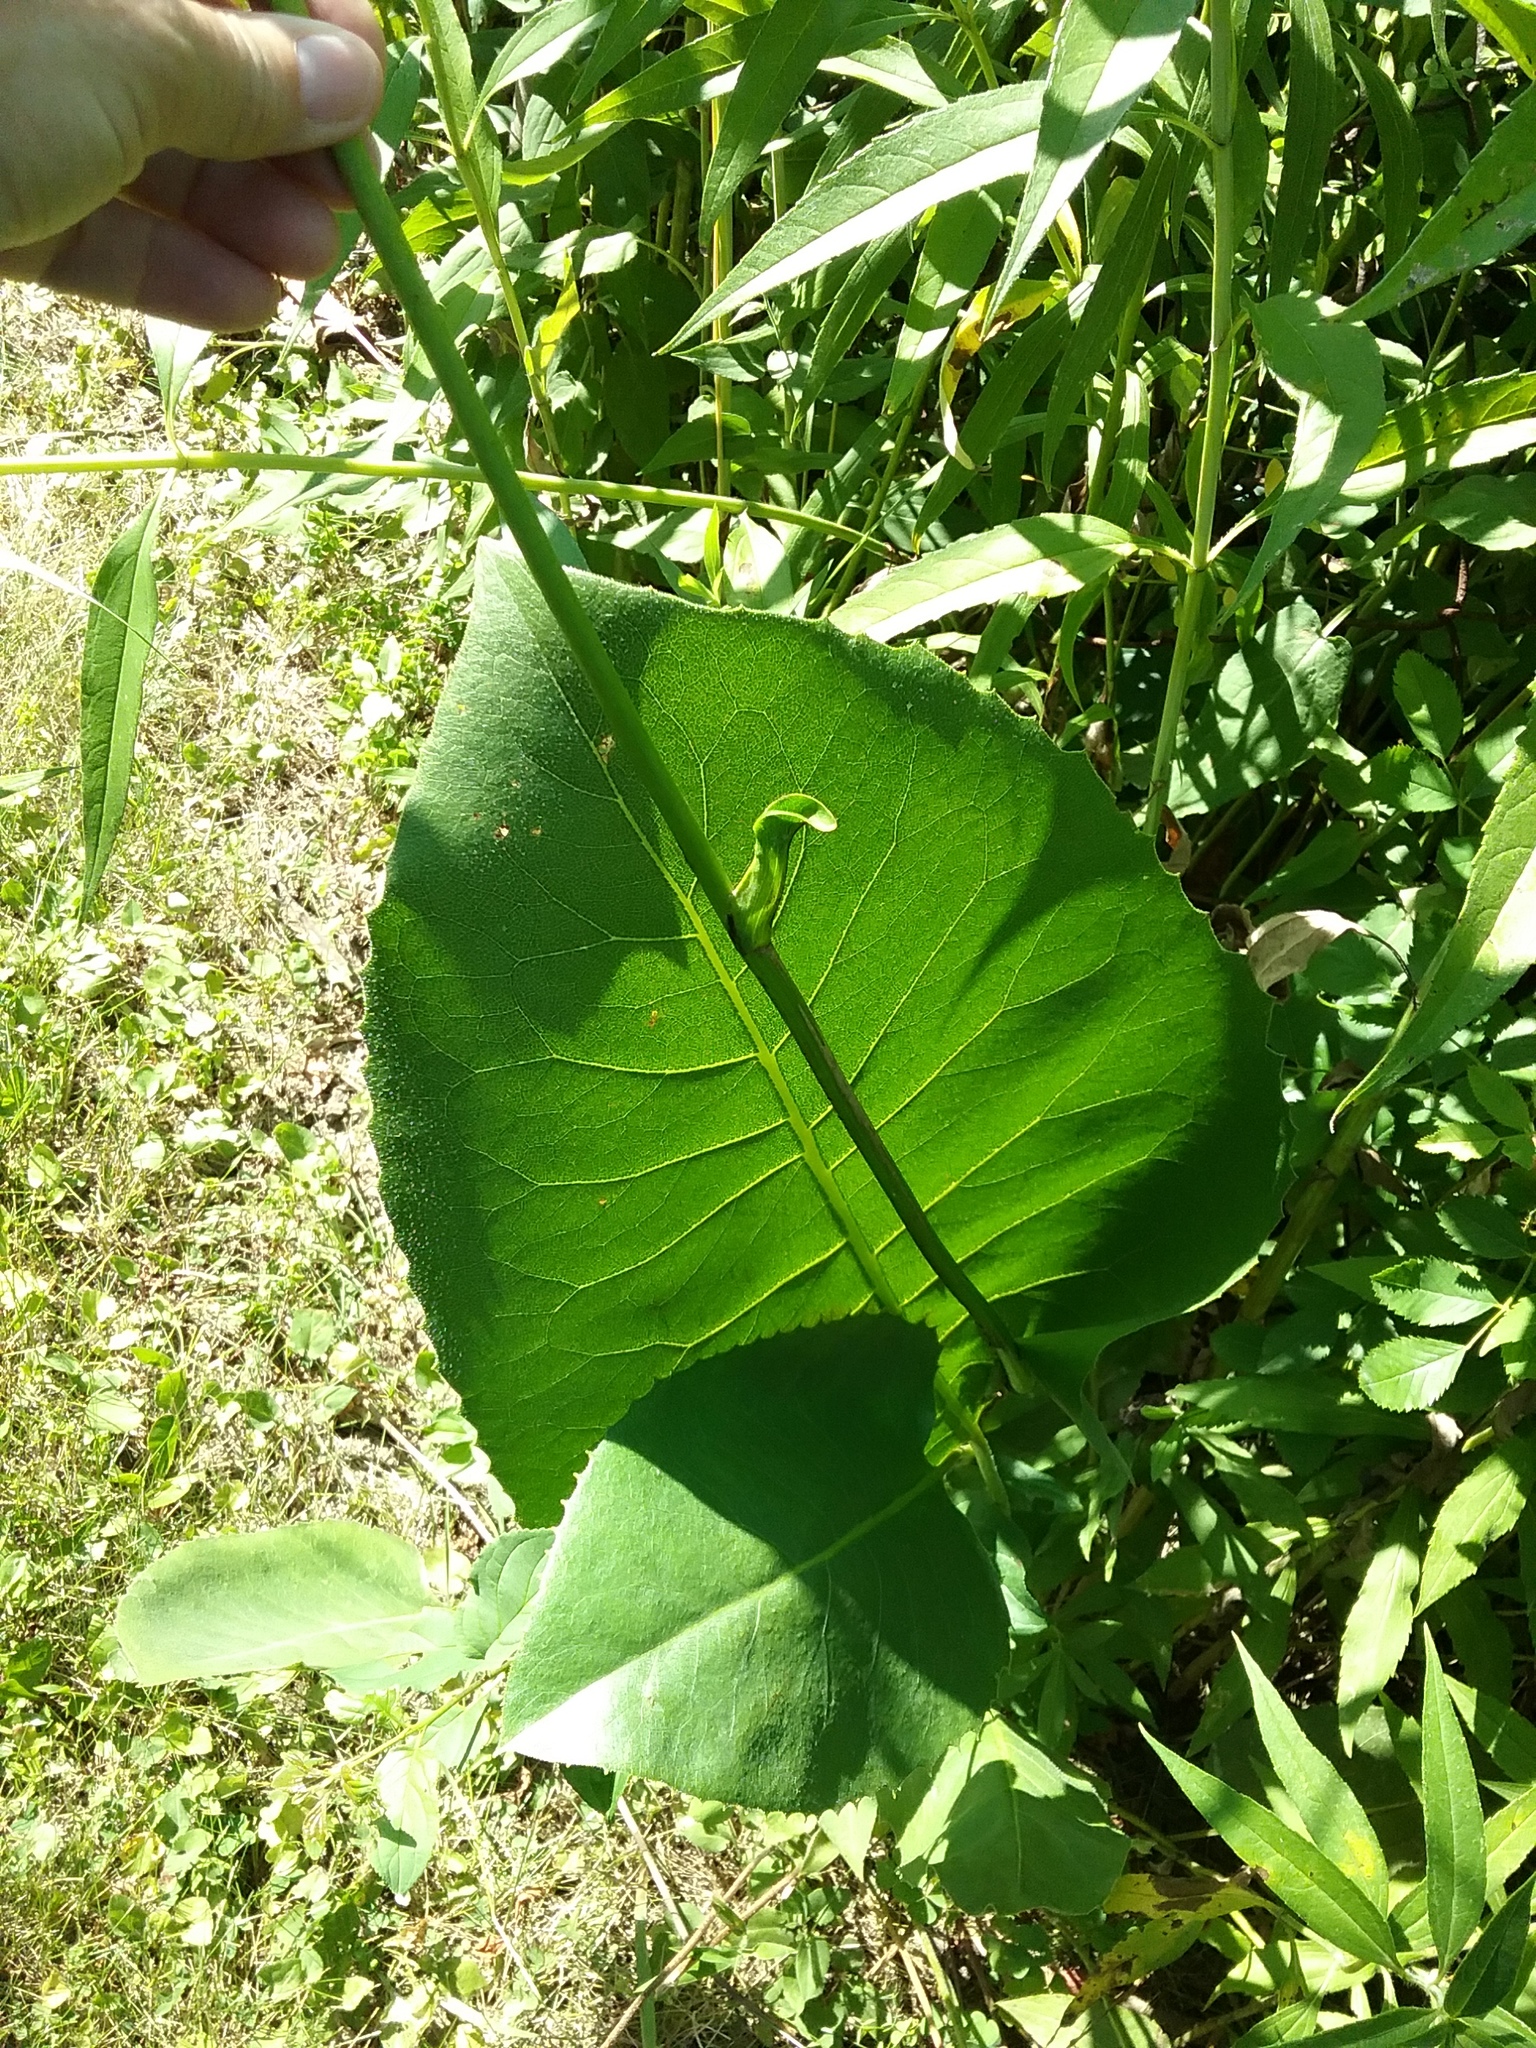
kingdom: Plantae
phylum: Tracheophyta
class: Magnoliopsida
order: Asterales
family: Asteraceae
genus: Silphium
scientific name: Silphium terebinthinaceum
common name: Basal-leaf rosinweed
